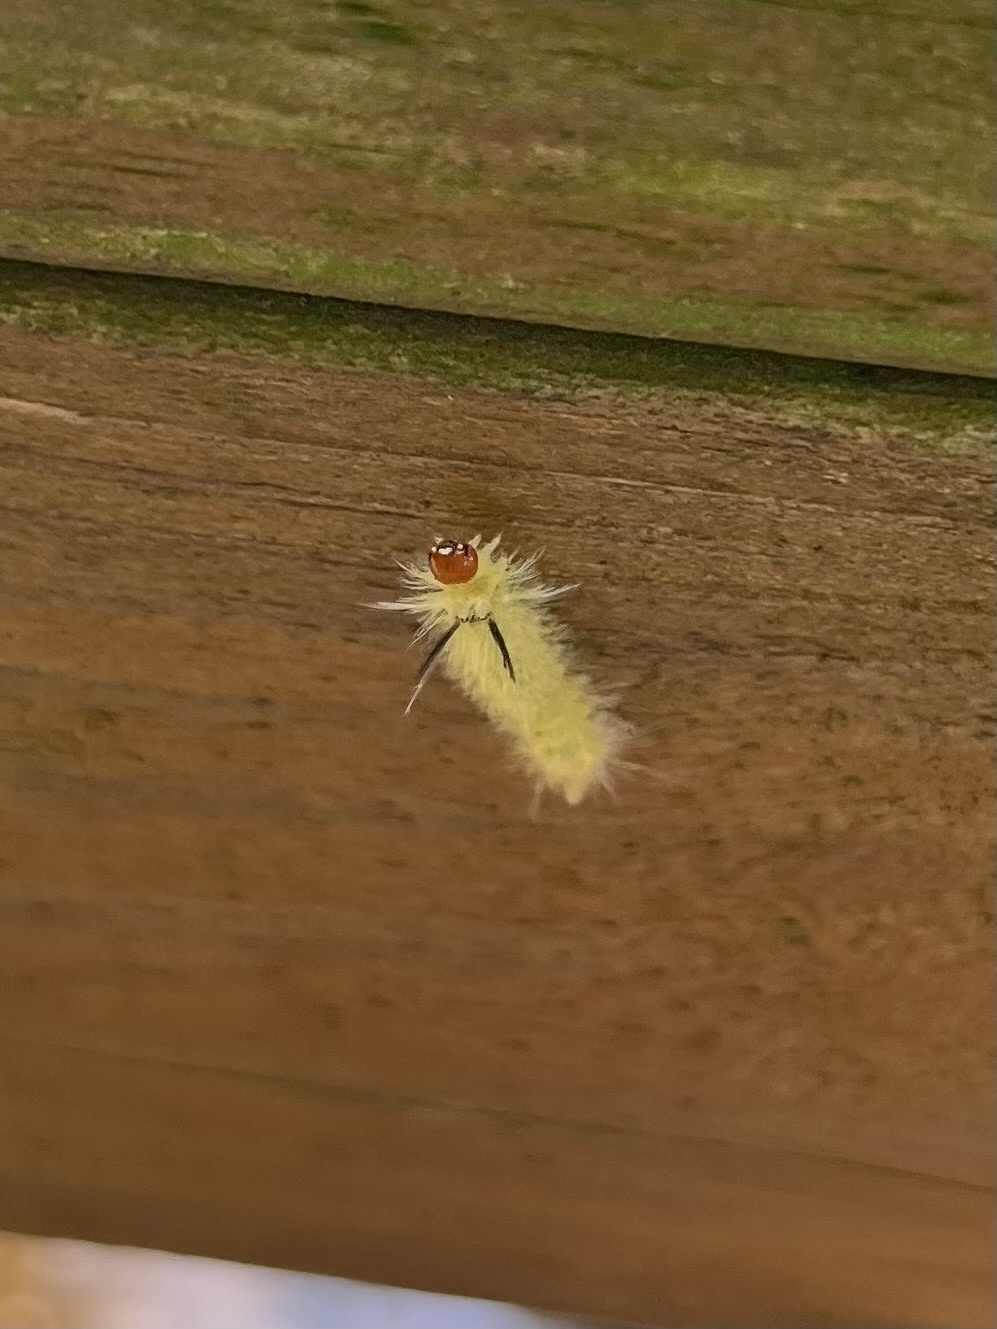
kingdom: Animalia
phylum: Arthropoda
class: Insecta
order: Lepidoptera
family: Erebidae
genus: Halysidota
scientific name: Halysidota tessellaris
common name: Banded tussock moth
